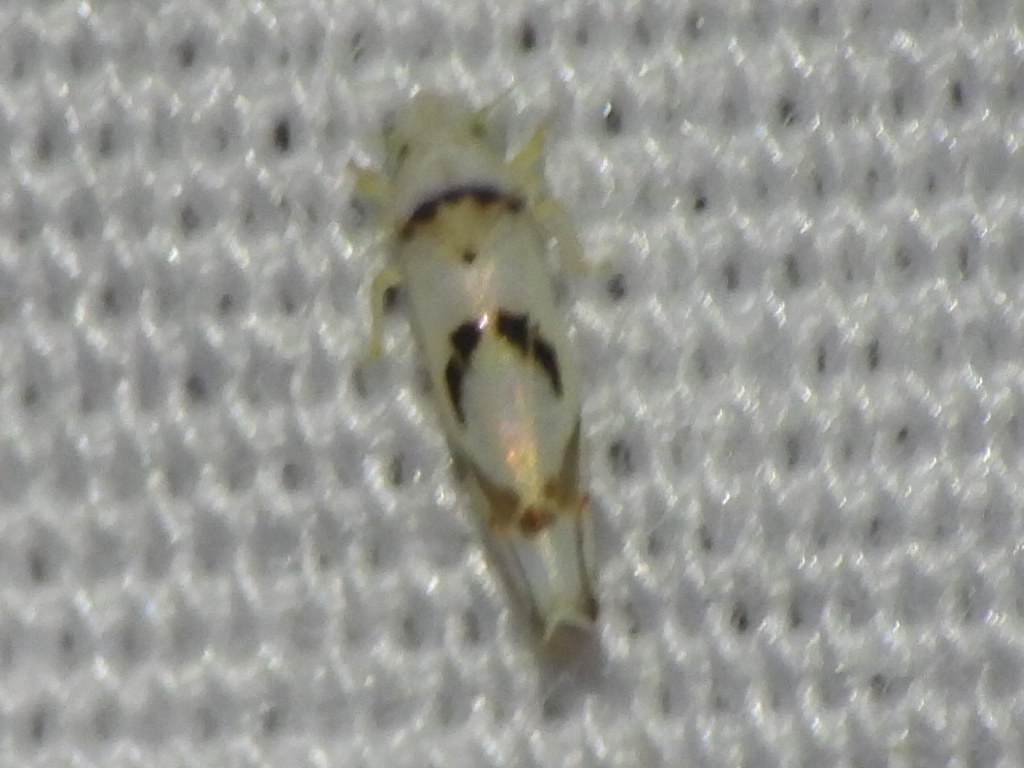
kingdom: Animalia
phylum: Arthropoda
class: Insecta
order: Hemiptera
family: Cicadellidae
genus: Eratoneura
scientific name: Eratoneura lunata
